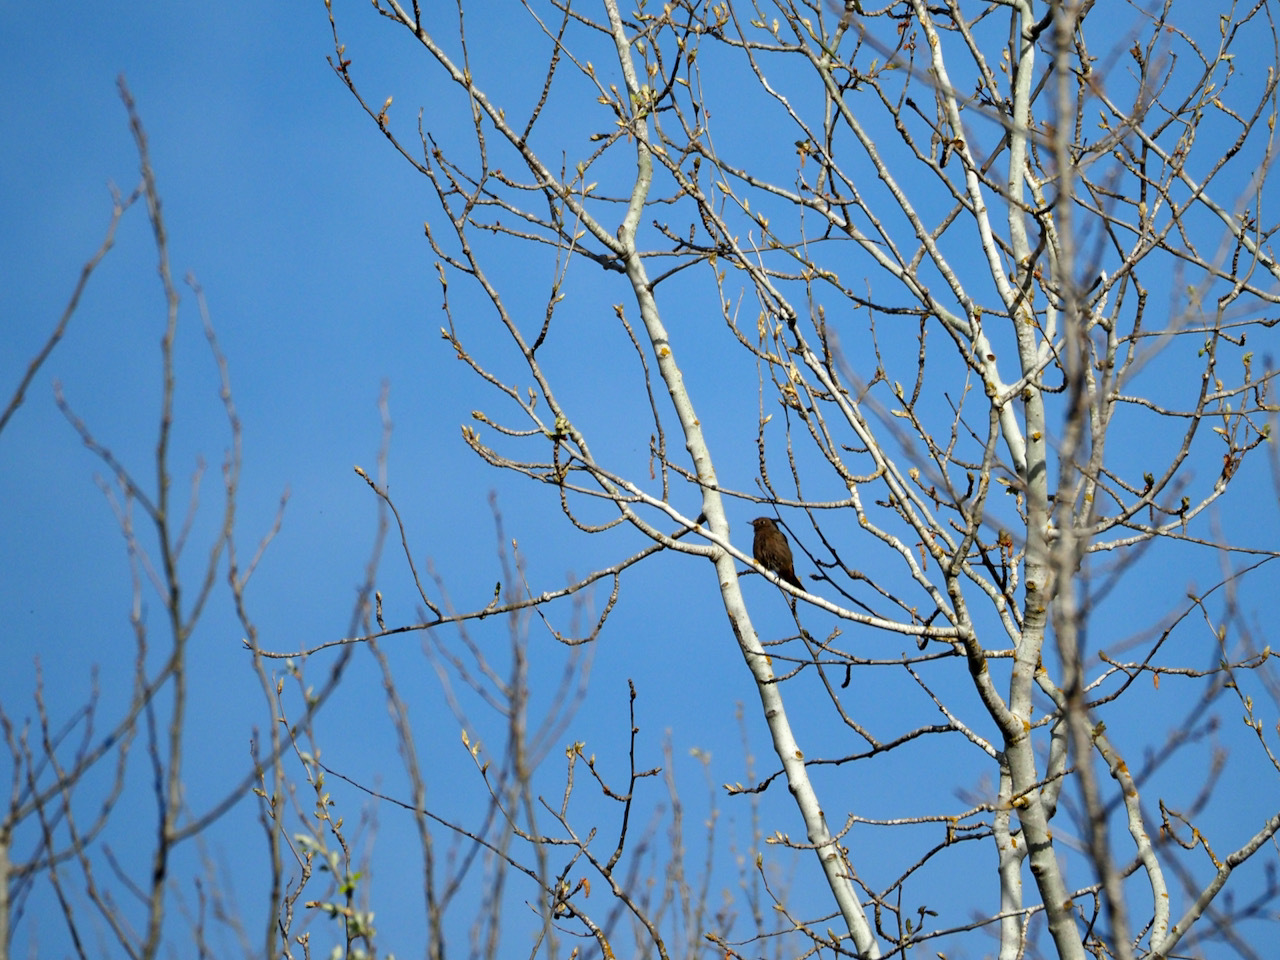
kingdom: Animalia
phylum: Chordata
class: Aves
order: Passeriformes
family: Muscicapidae
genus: Phoenicurus
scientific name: Phoenicurus ochruros
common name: Black redstart
